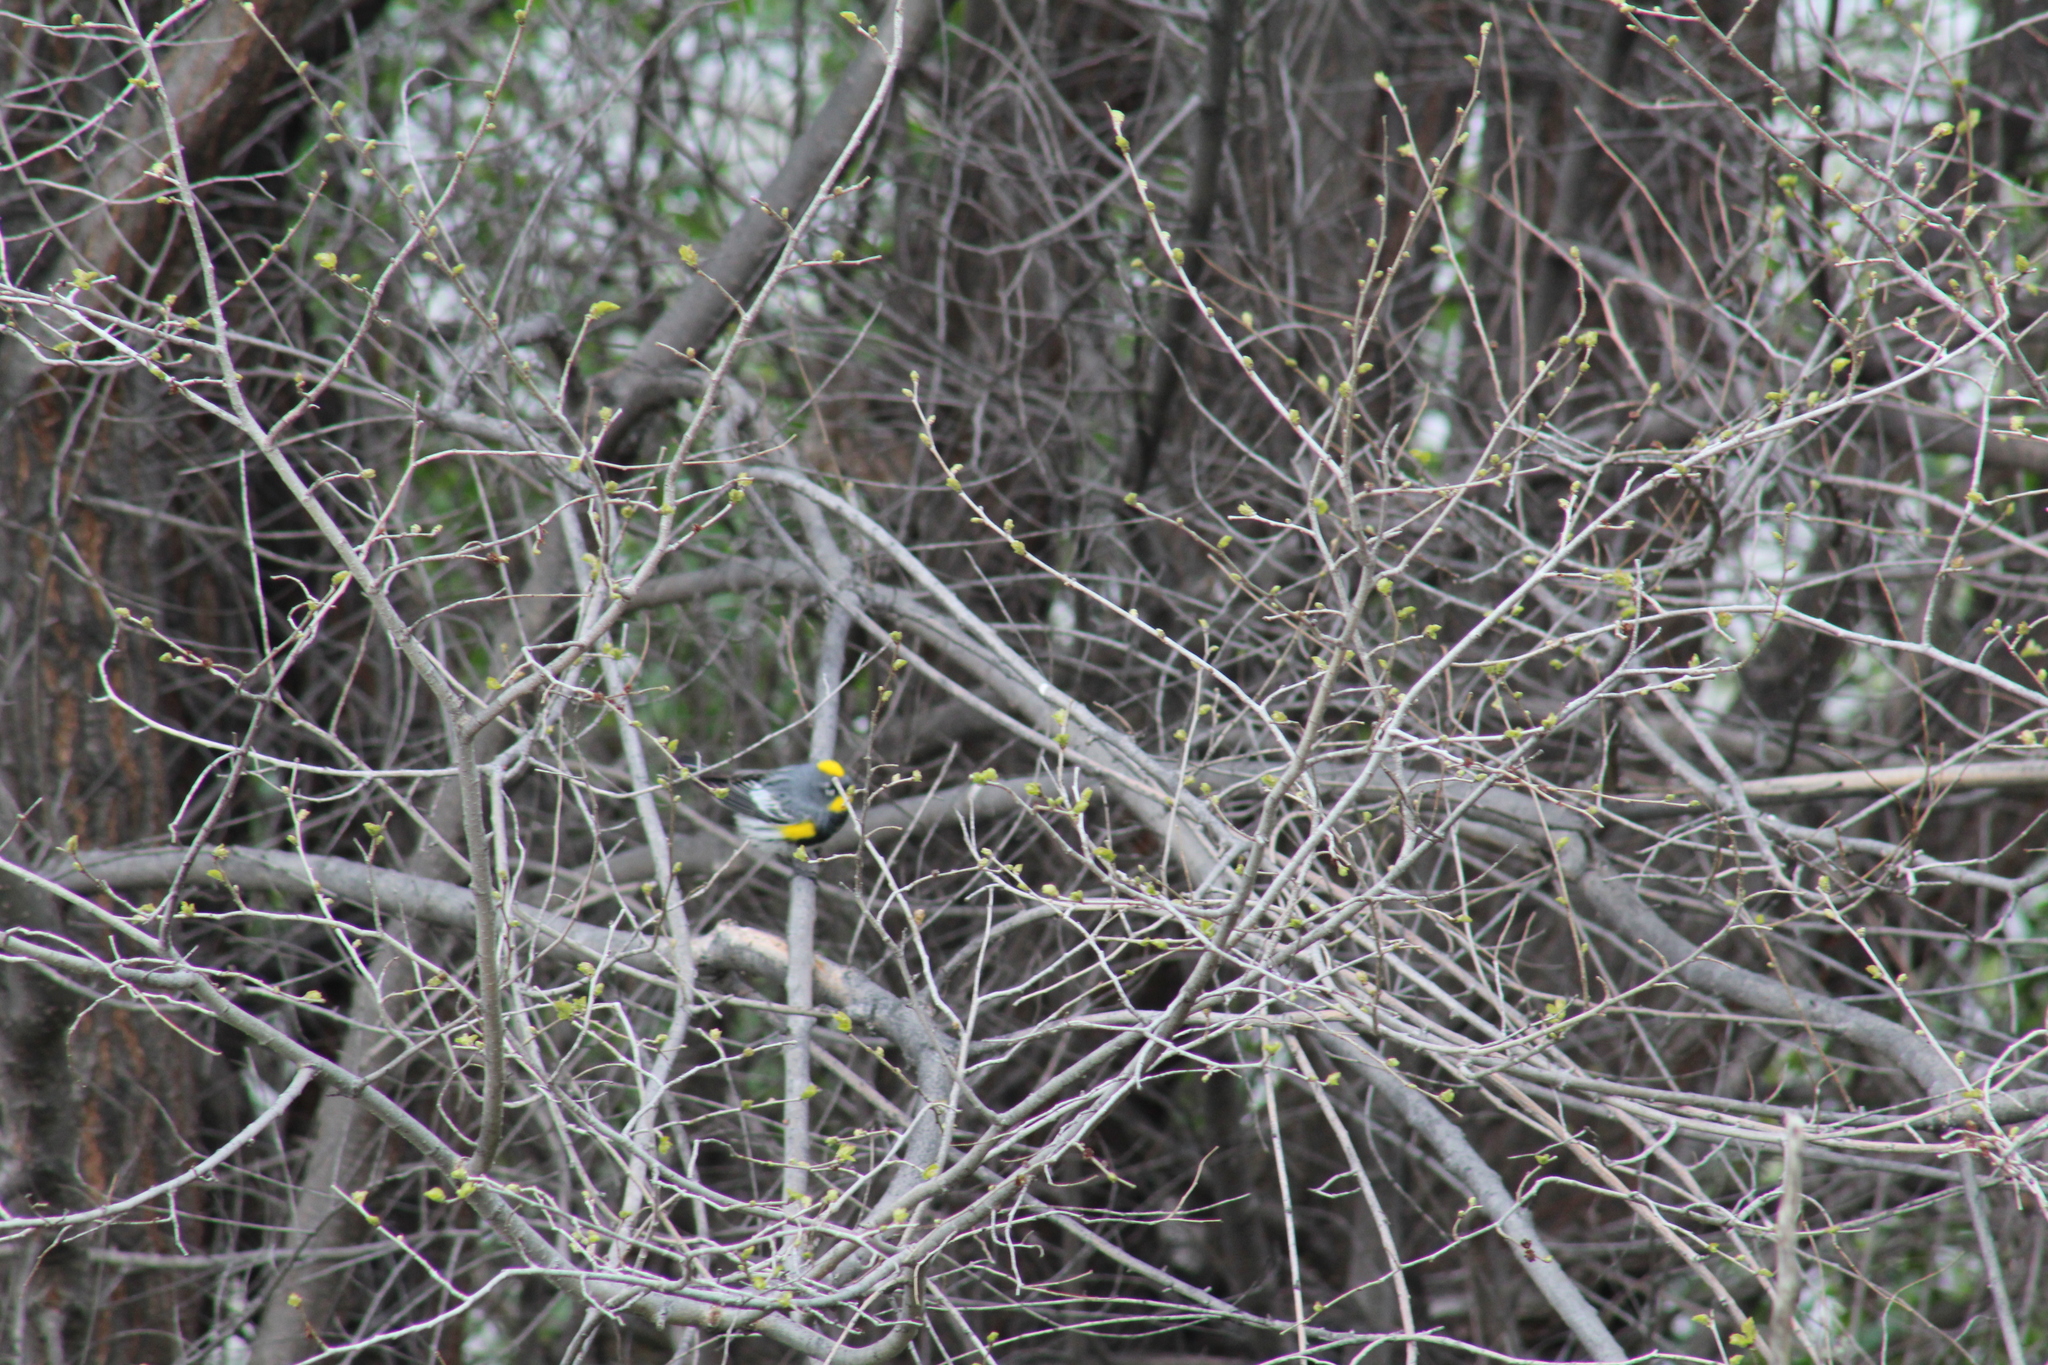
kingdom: Animalia
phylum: Chordata
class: Aves
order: Passeriformes
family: Parulidae
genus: Setophaga
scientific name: Setophaga auduboni
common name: Audubon's warbler
